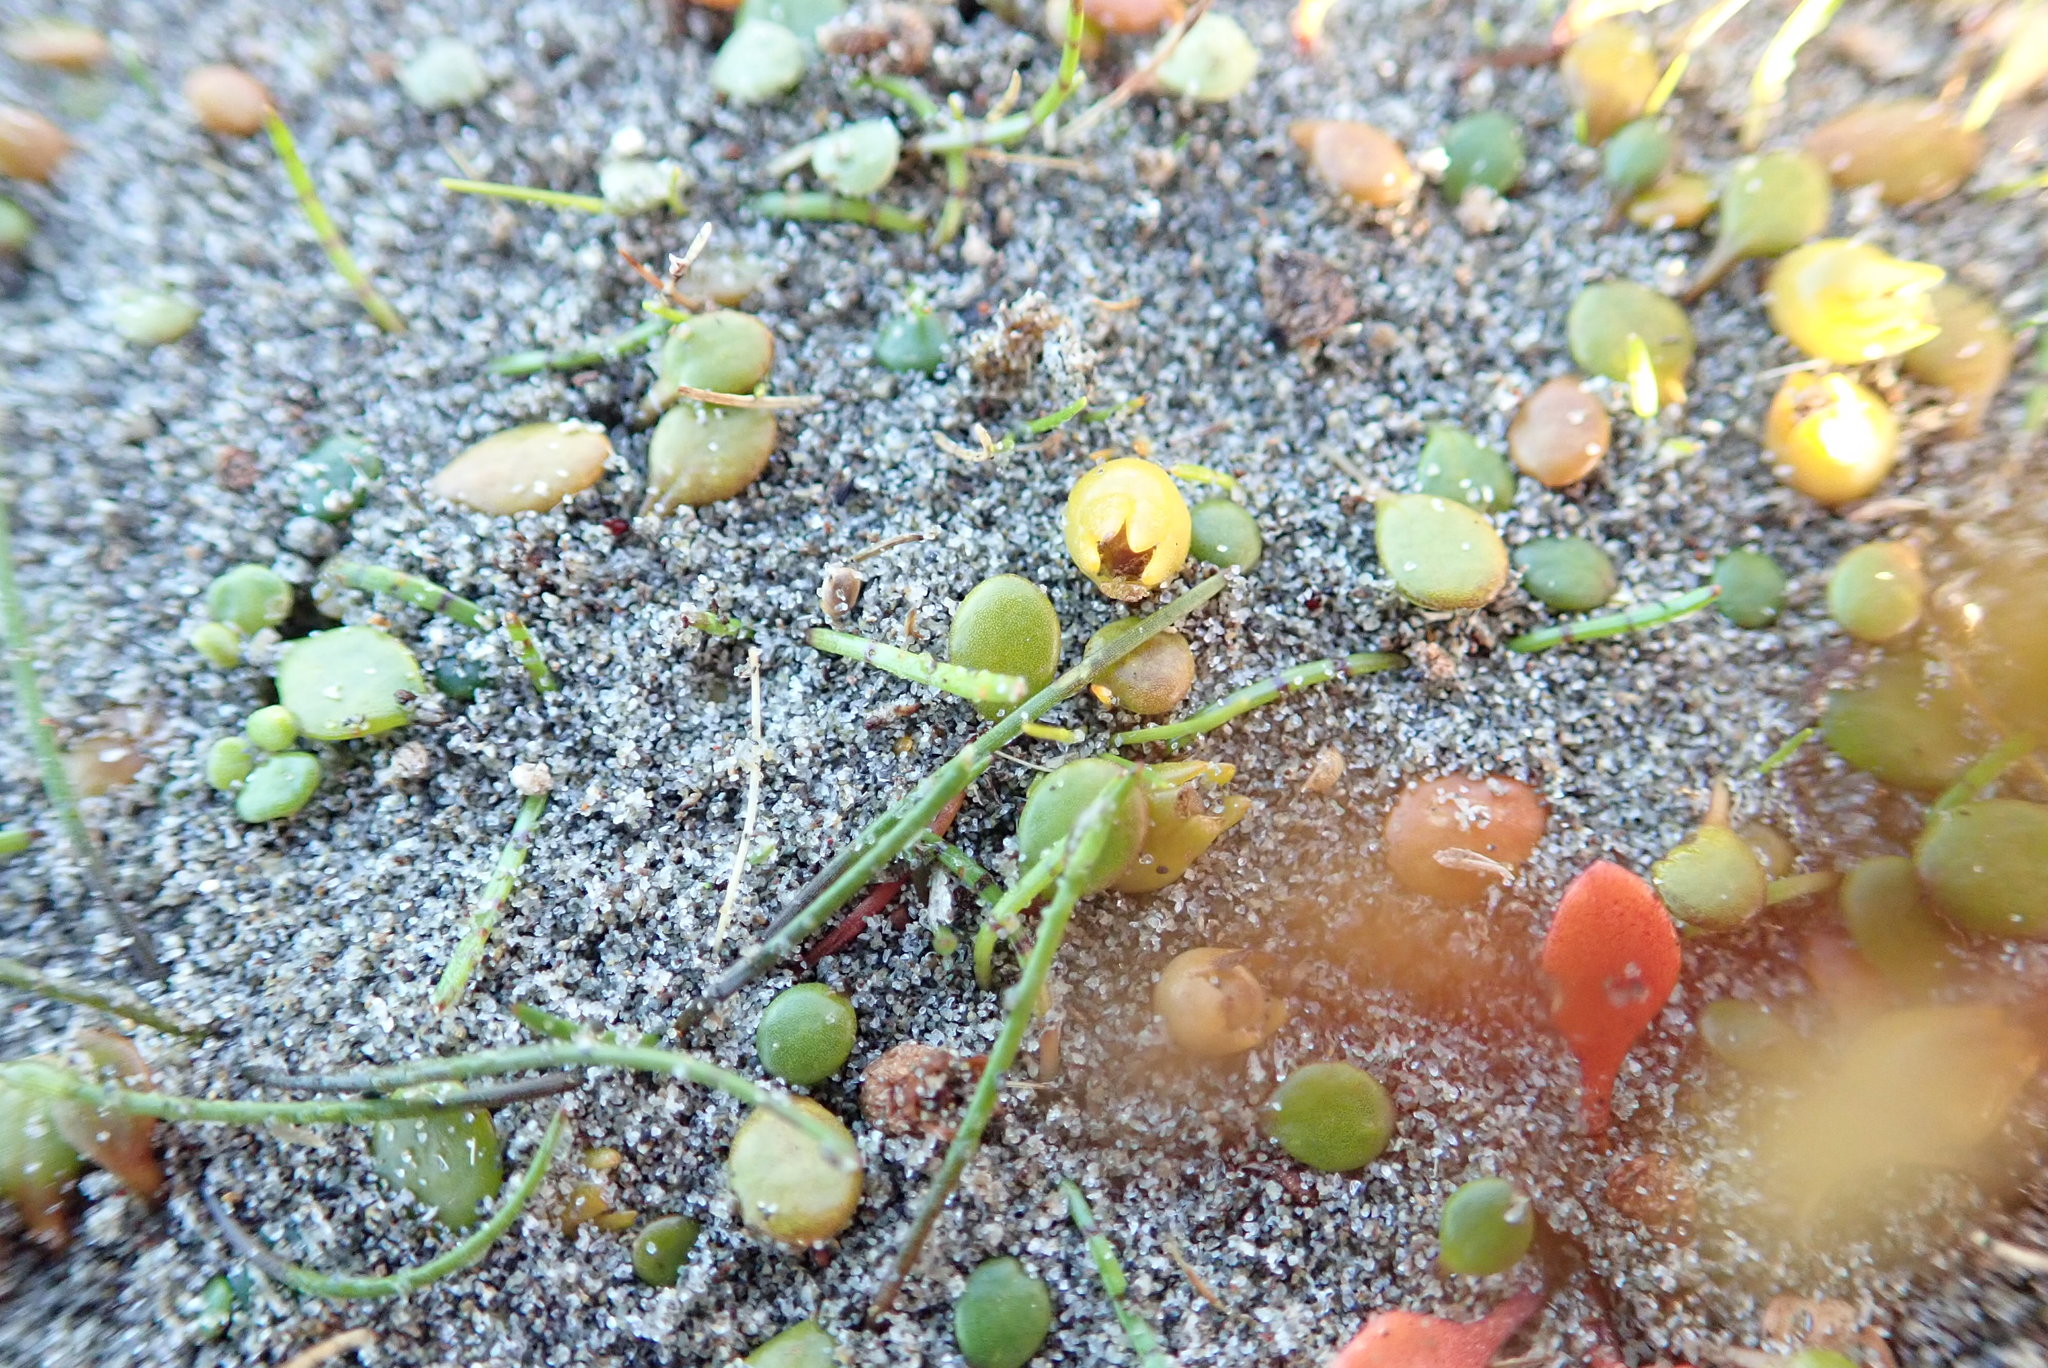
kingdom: Plantae
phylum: Tracheophyta
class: Magnoliopsida
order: Asterales
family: Goodeniaceae
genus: Goodenia
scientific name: Goodenia heenanii
